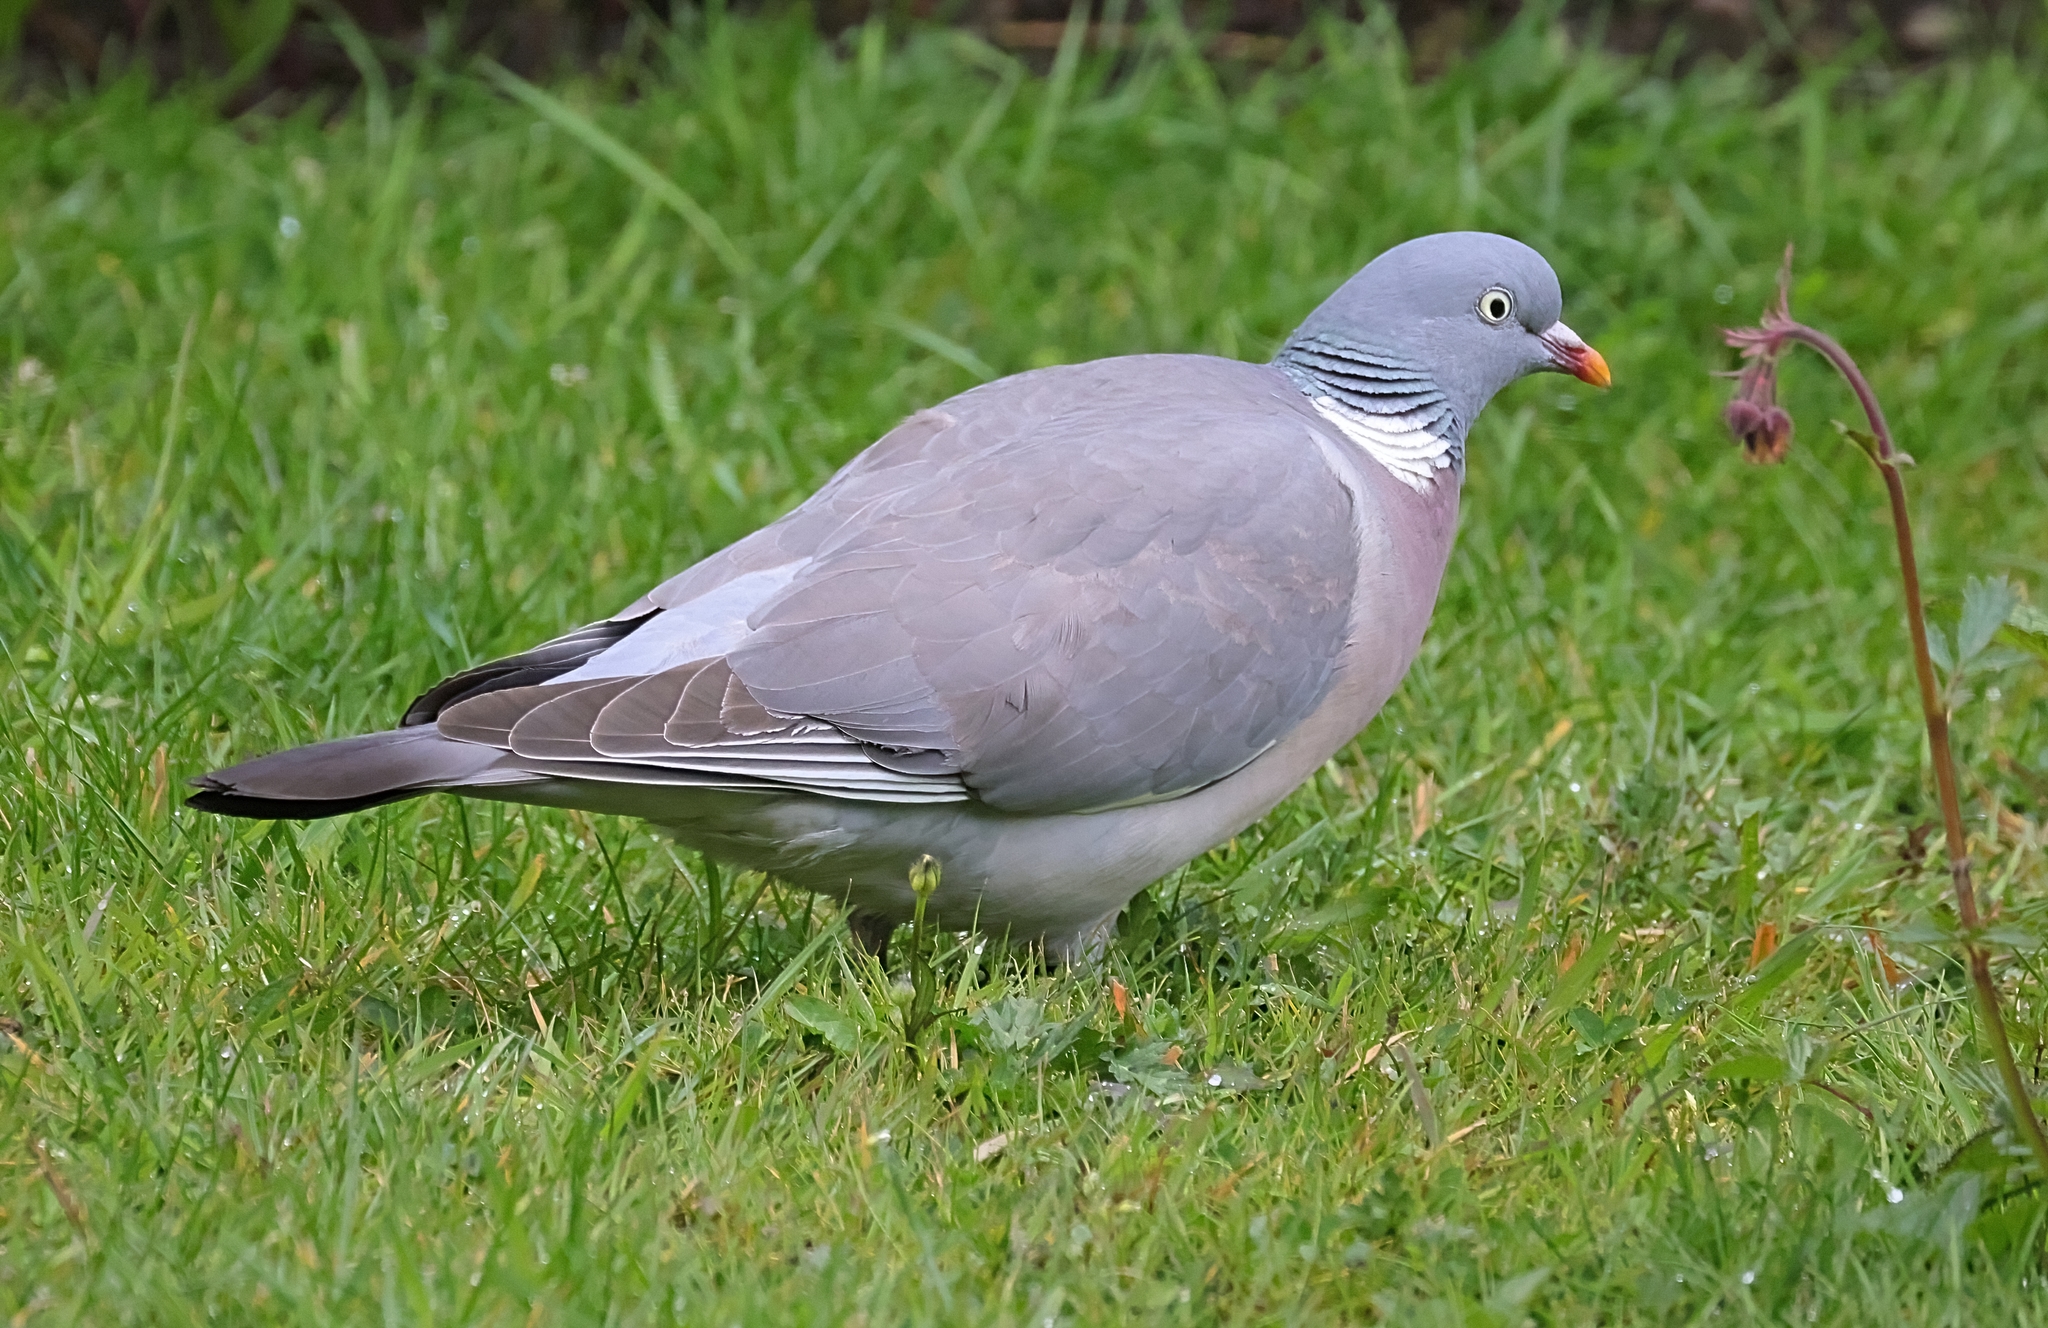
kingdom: Animalia
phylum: Chordata
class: Aves
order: Columbiformes
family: Columbidae
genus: Columba
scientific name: Columba palumbus
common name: Common wood pigeon
